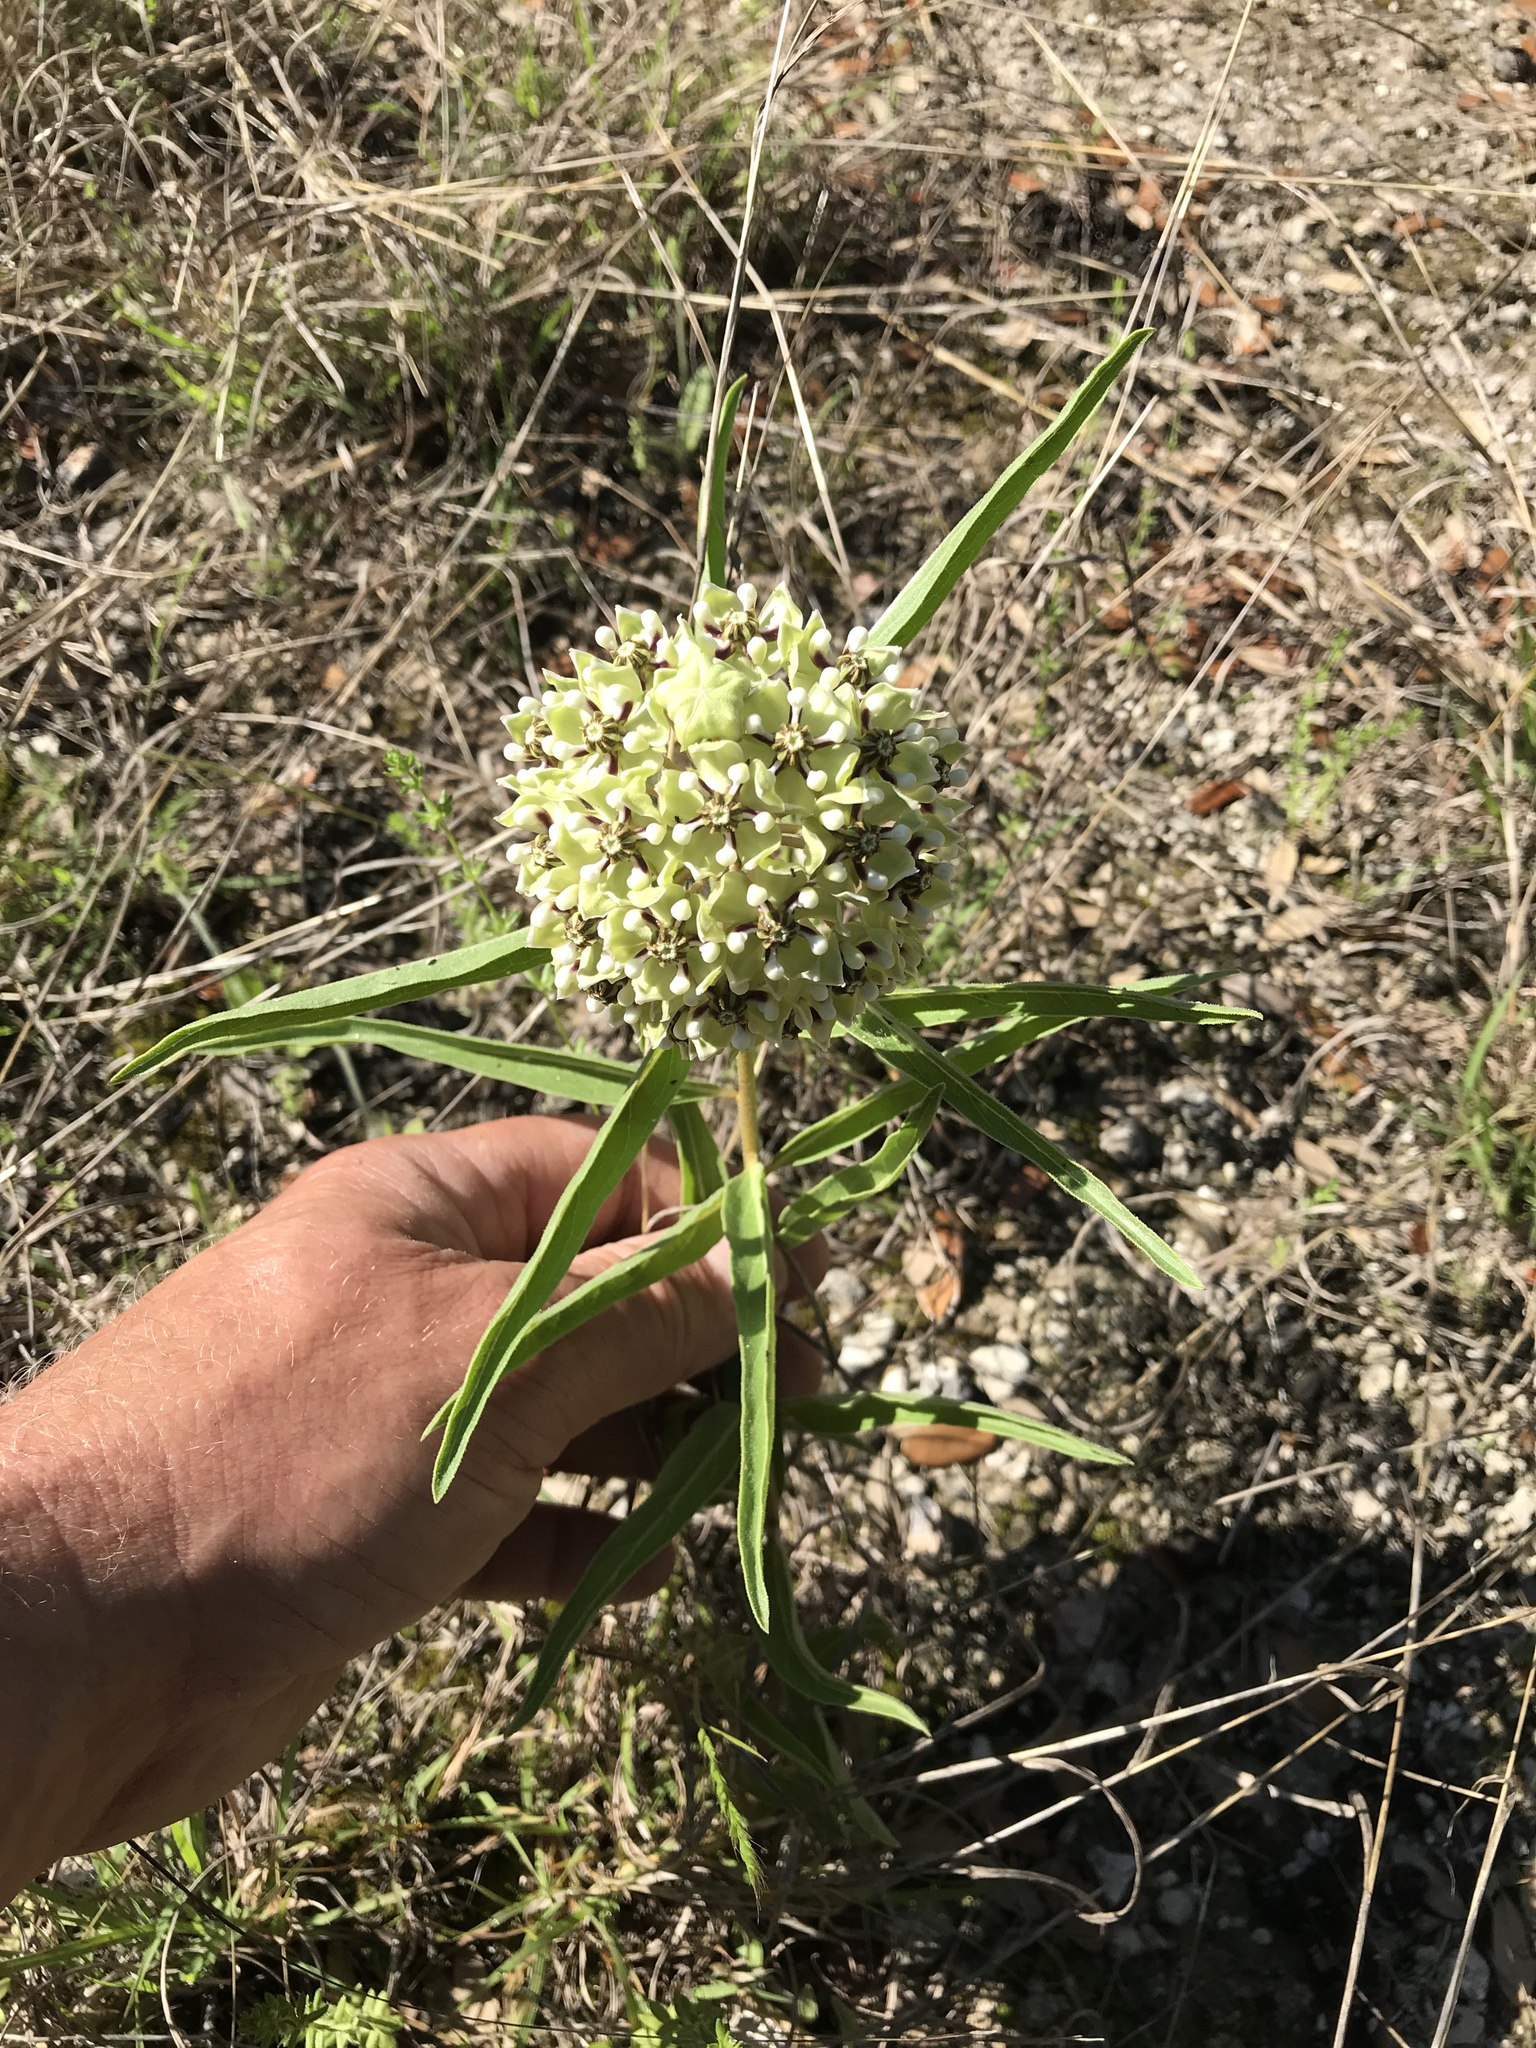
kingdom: Plantae
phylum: Tracheophyta
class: Magnoliopsida
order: Gentianales
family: Apocynaceae
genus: Asclepias
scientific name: Asclepias asperula
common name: Antelope horns
